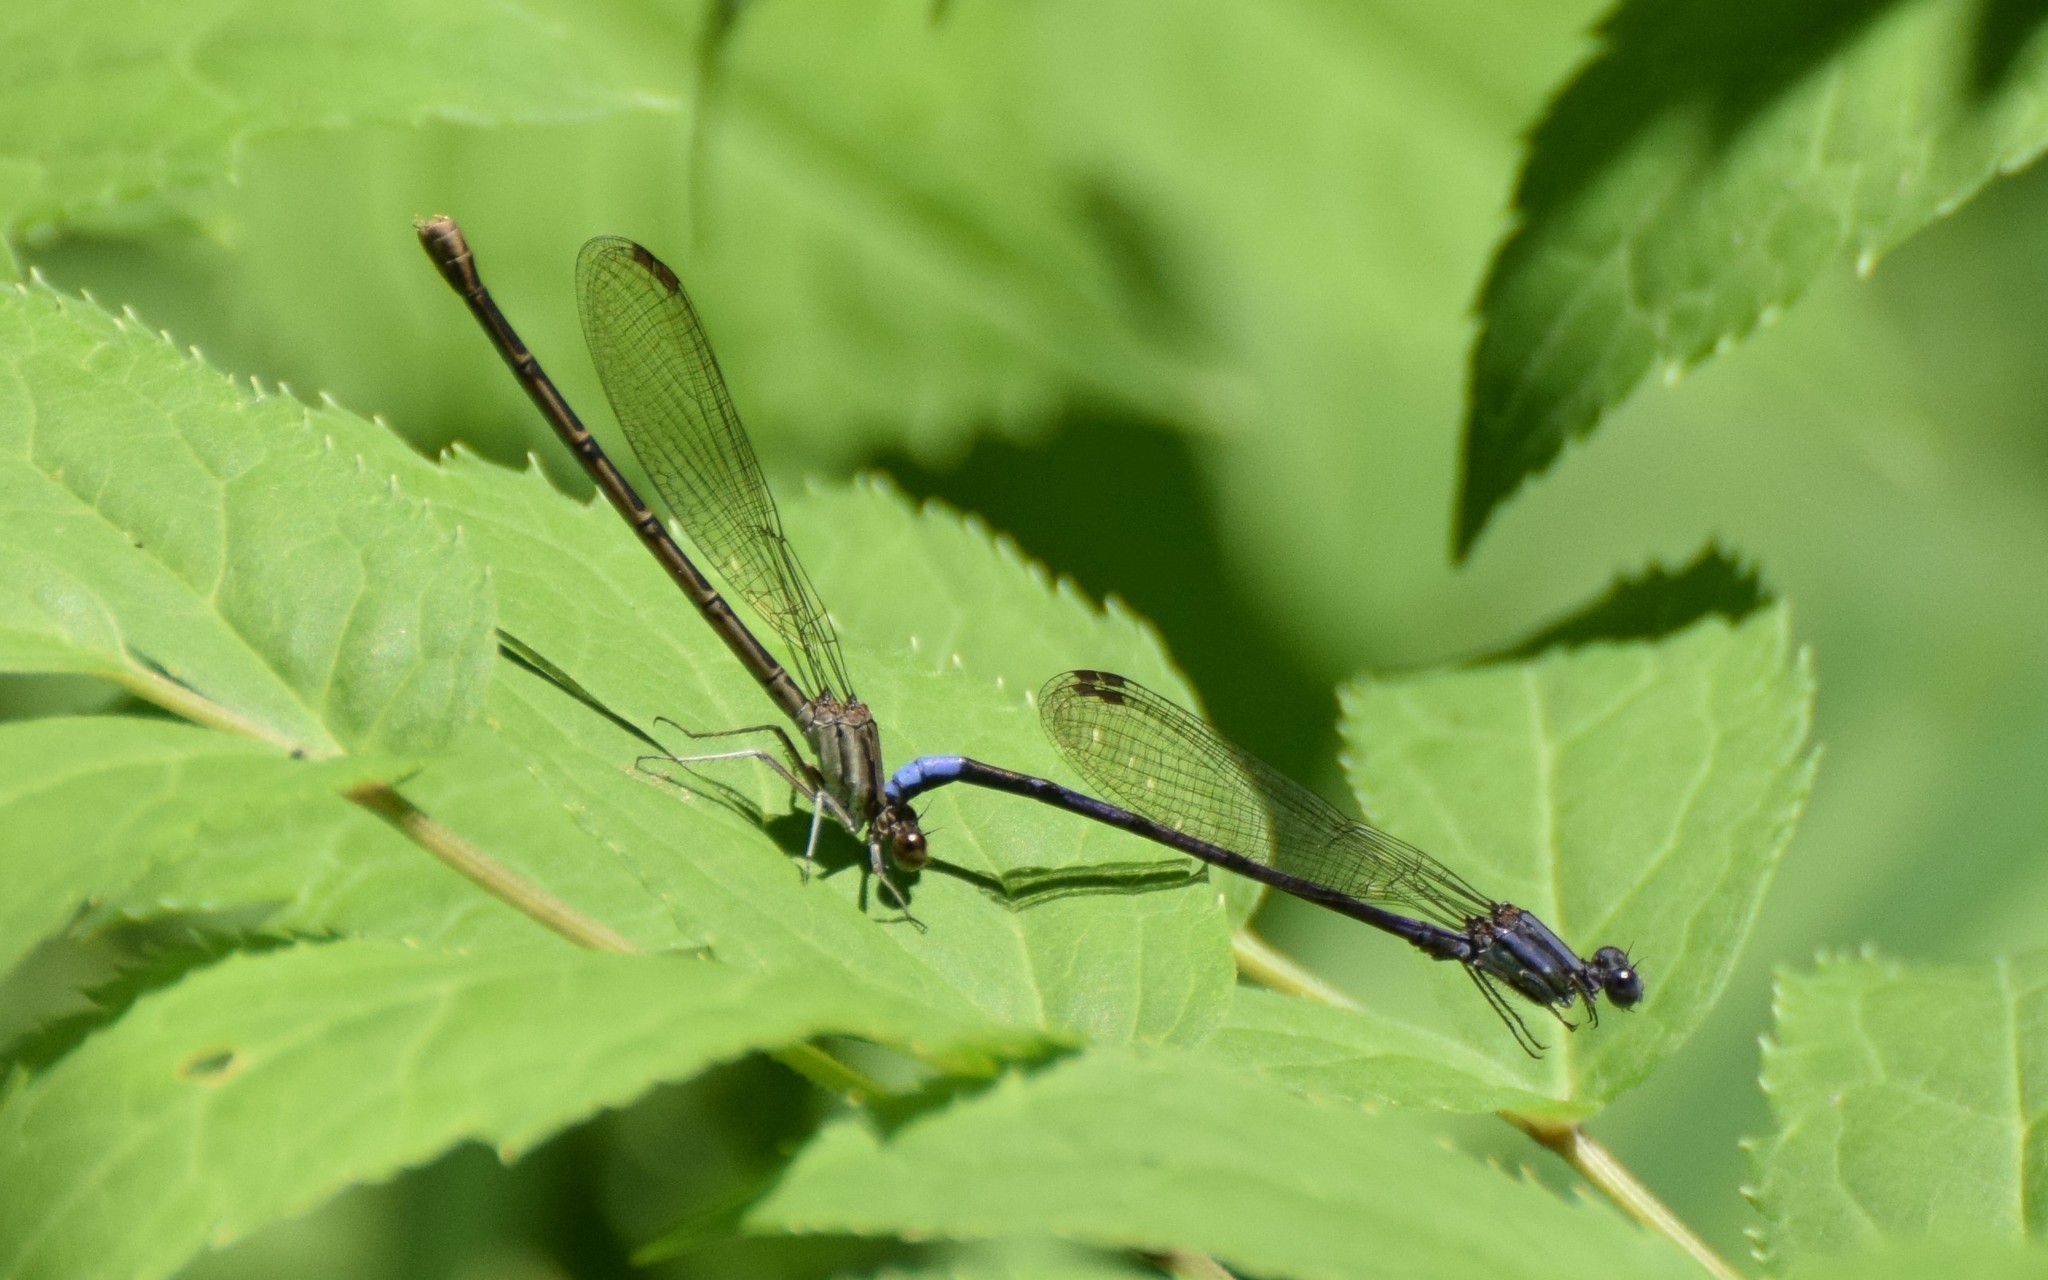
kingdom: Animalia
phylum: Arthropoda
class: Insecta
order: Odonata
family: Coenagrionidae
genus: Argia
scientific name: Argia fumipennis
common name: Variable dancer
